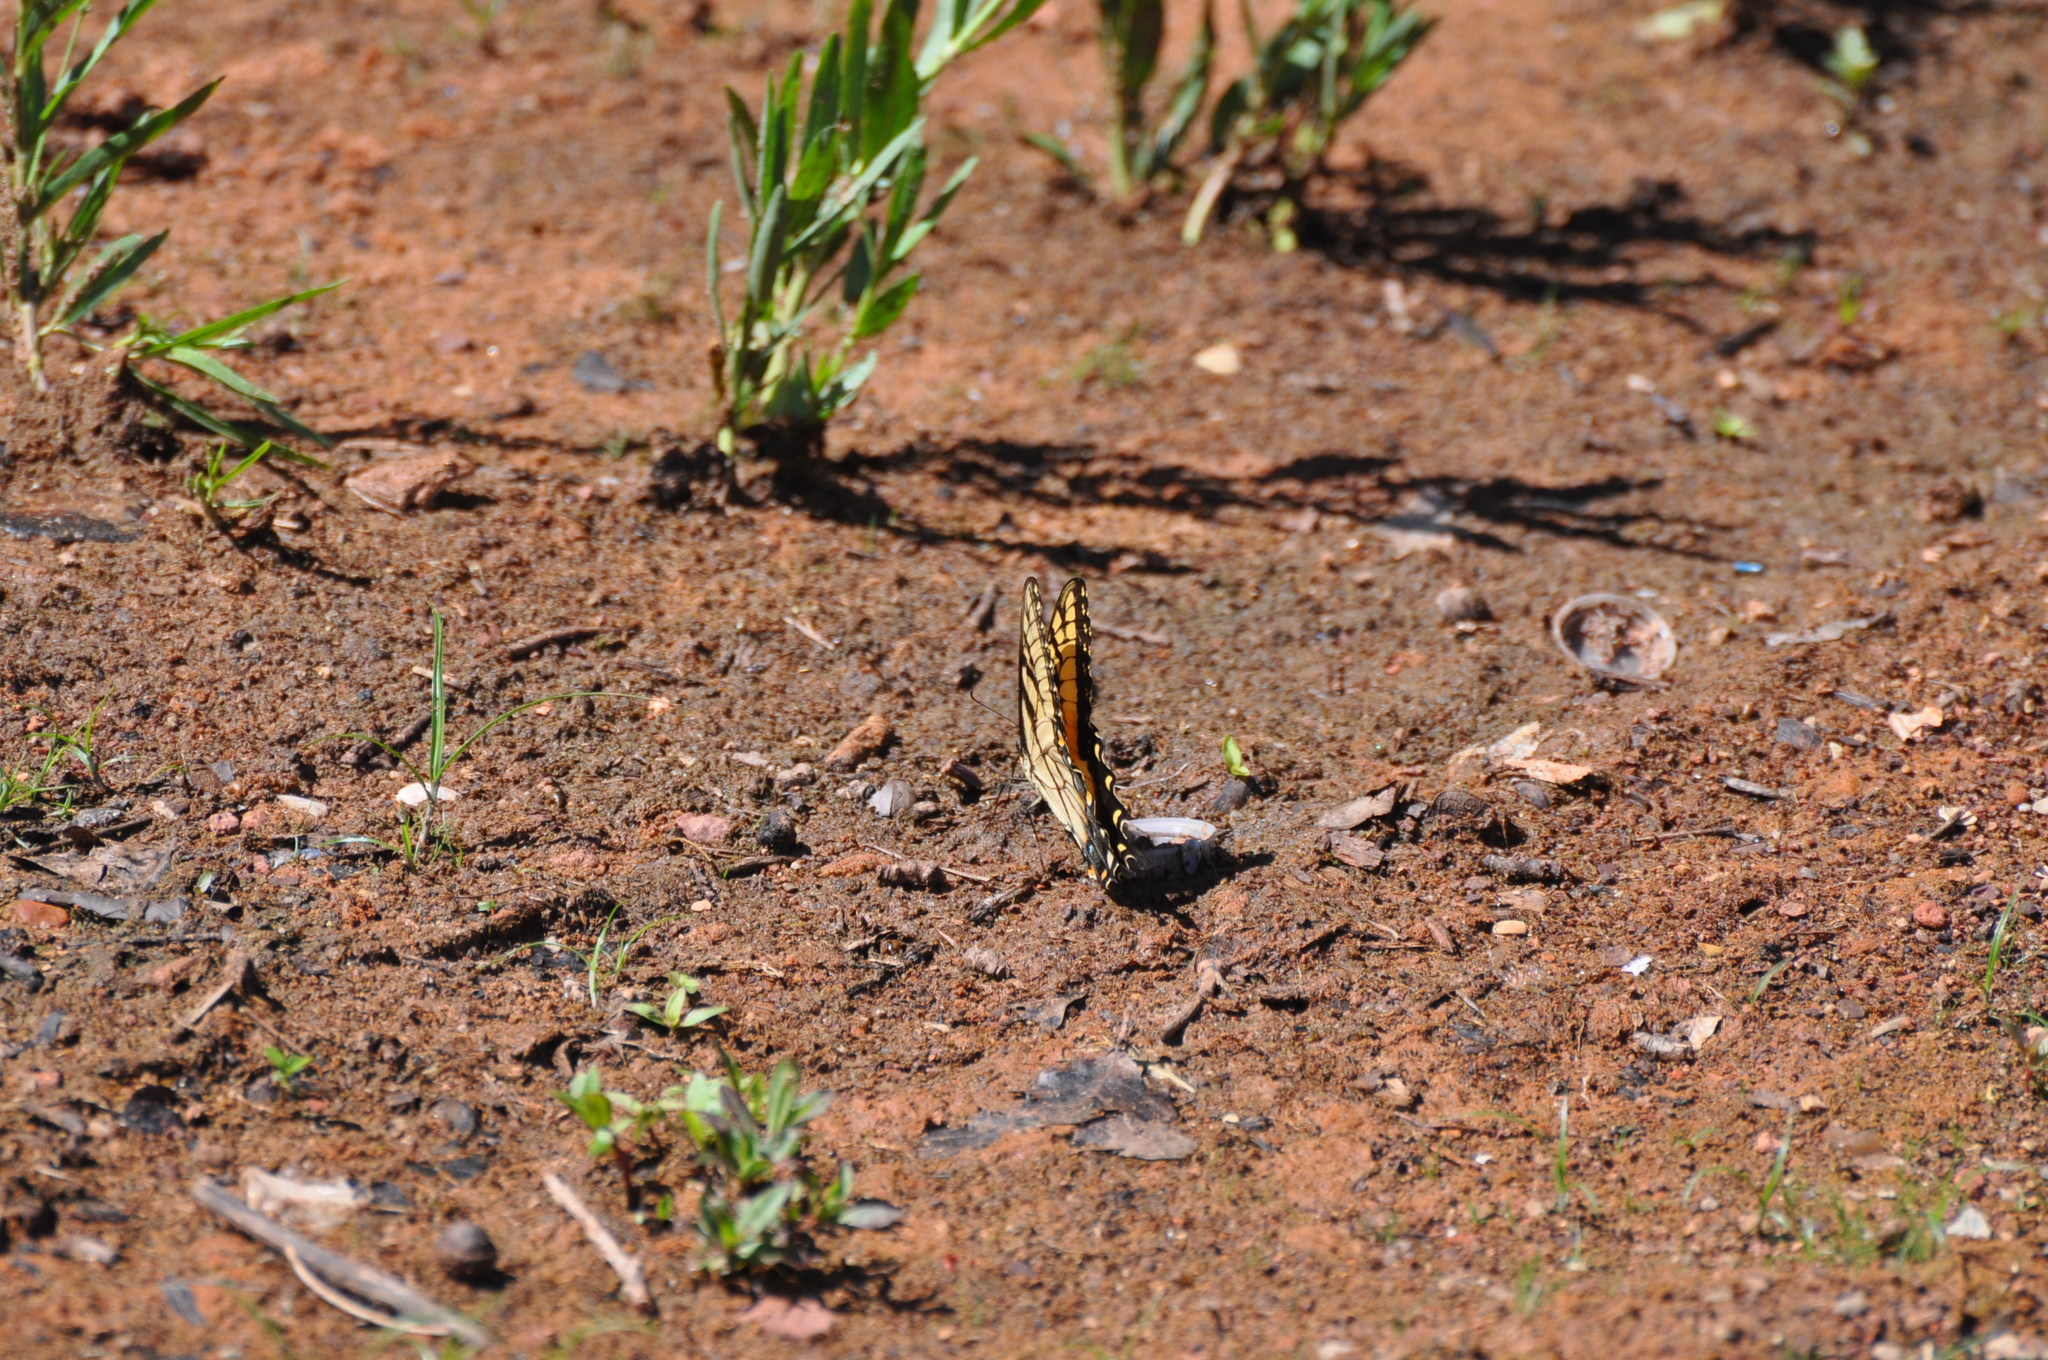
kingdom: Animalia
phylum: Arthropoda
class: Insecta
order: Lepidoptera
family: Papilionidae
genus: Papilio
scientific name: Papilio glaucus
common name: Tiger swallowtail
